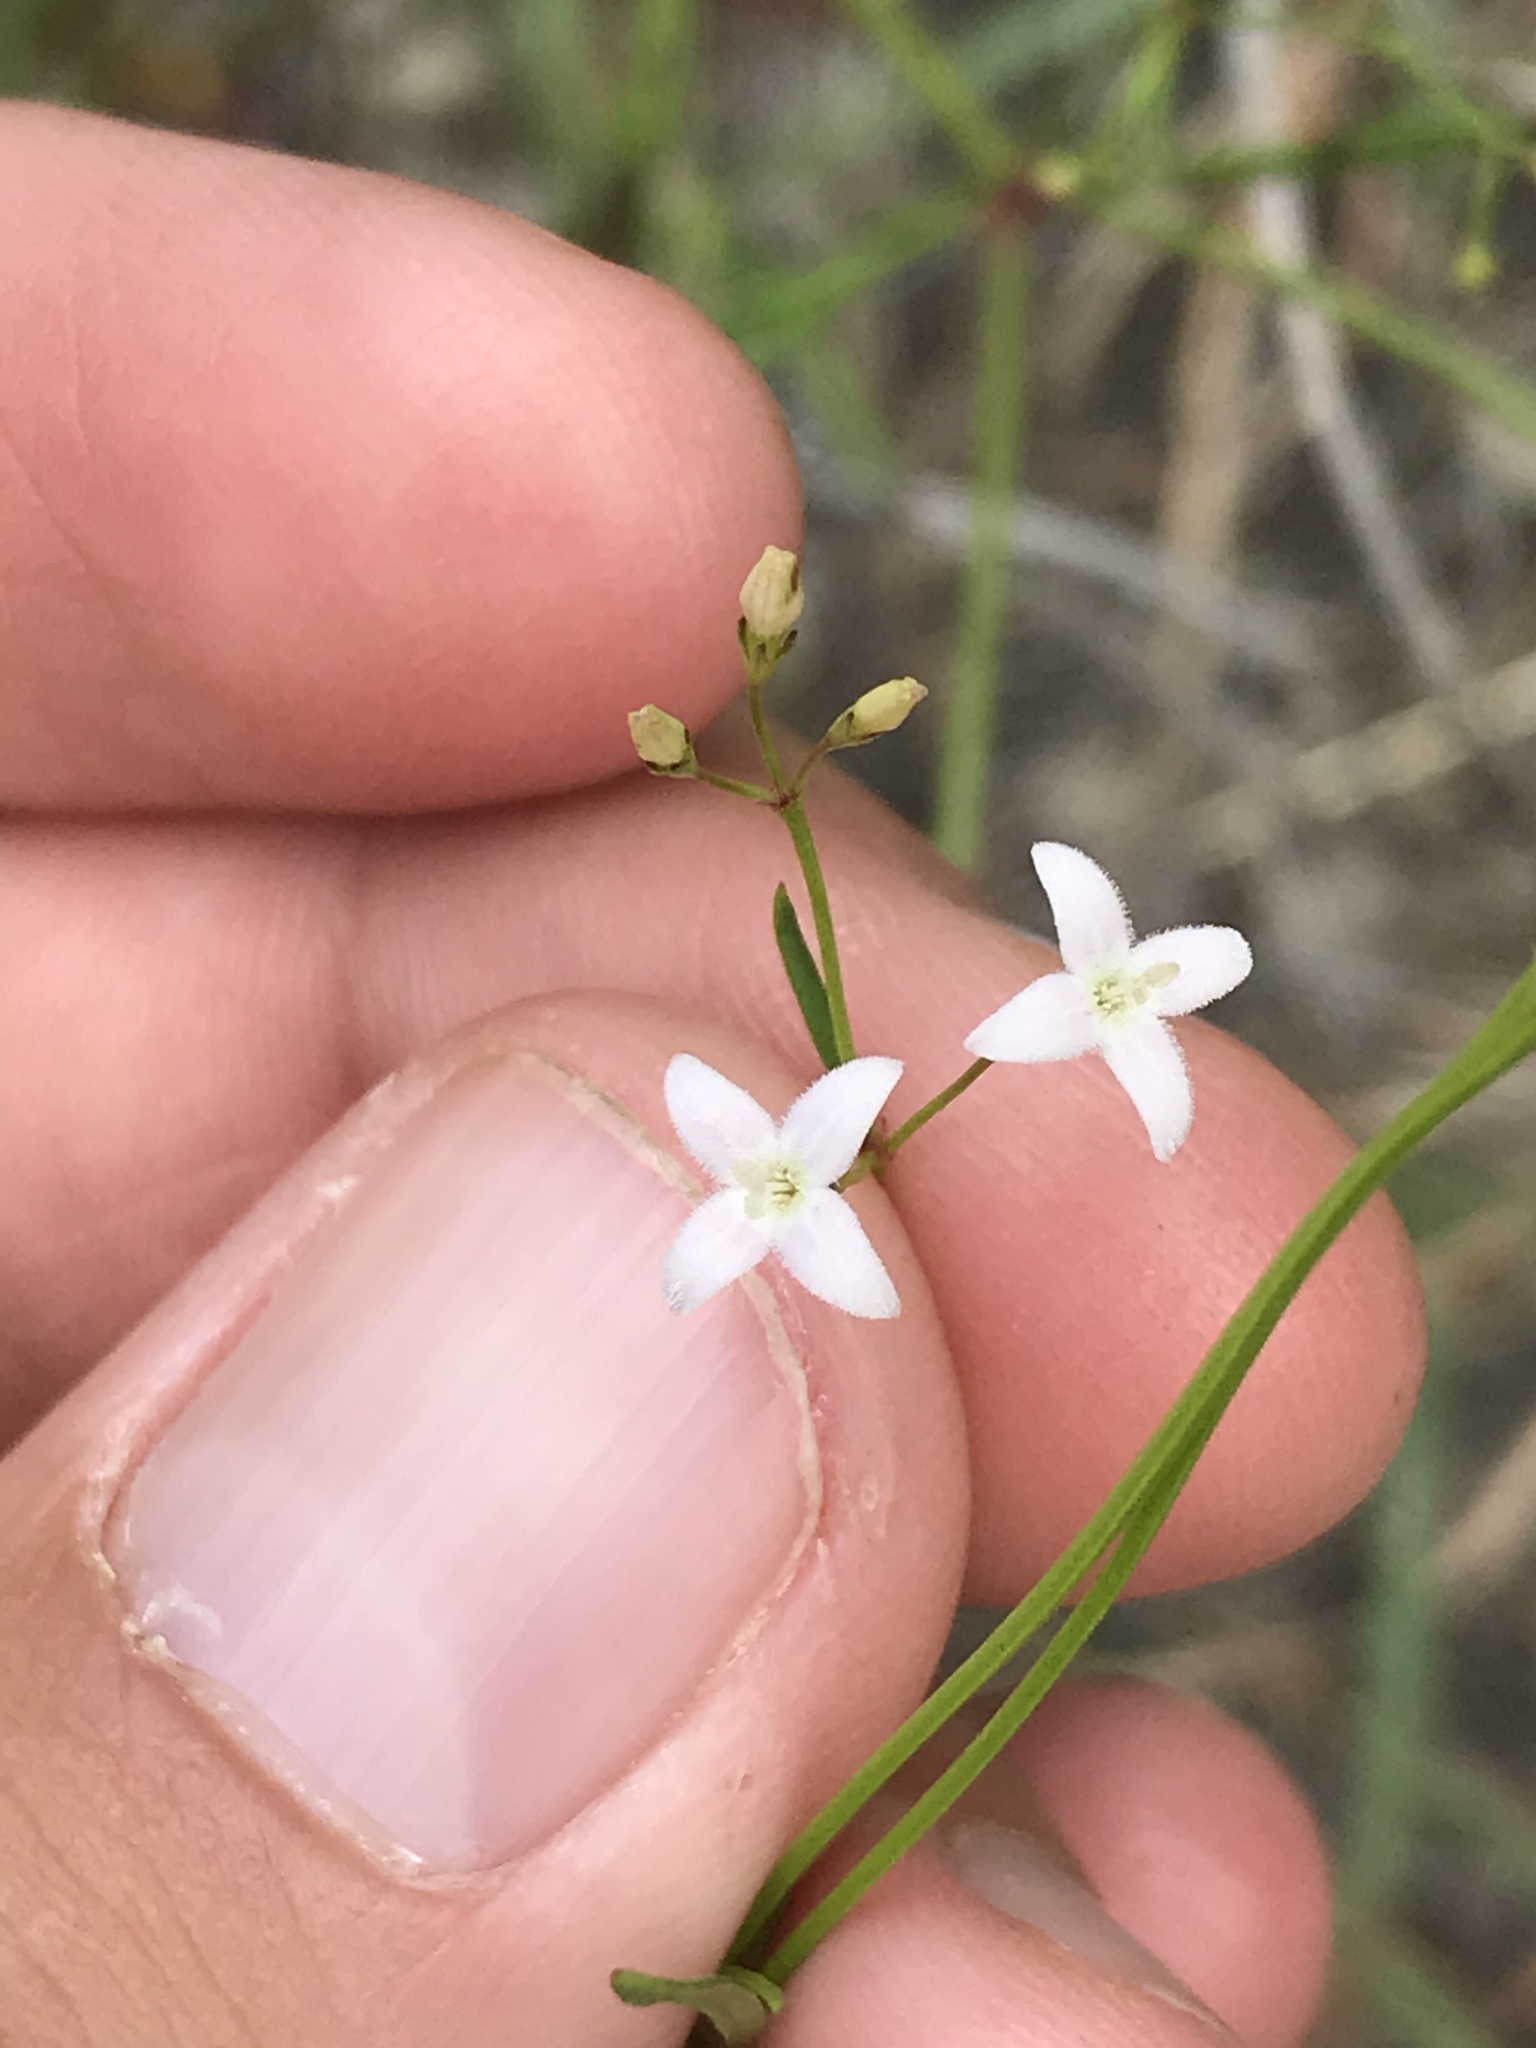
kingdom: Plantae
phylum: Tracheophyta
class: Magnoliopsida
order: Gentianales
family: Rubiaceae
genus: Stenaria
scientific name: Stenaria nigricans
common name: Diamondflowers
